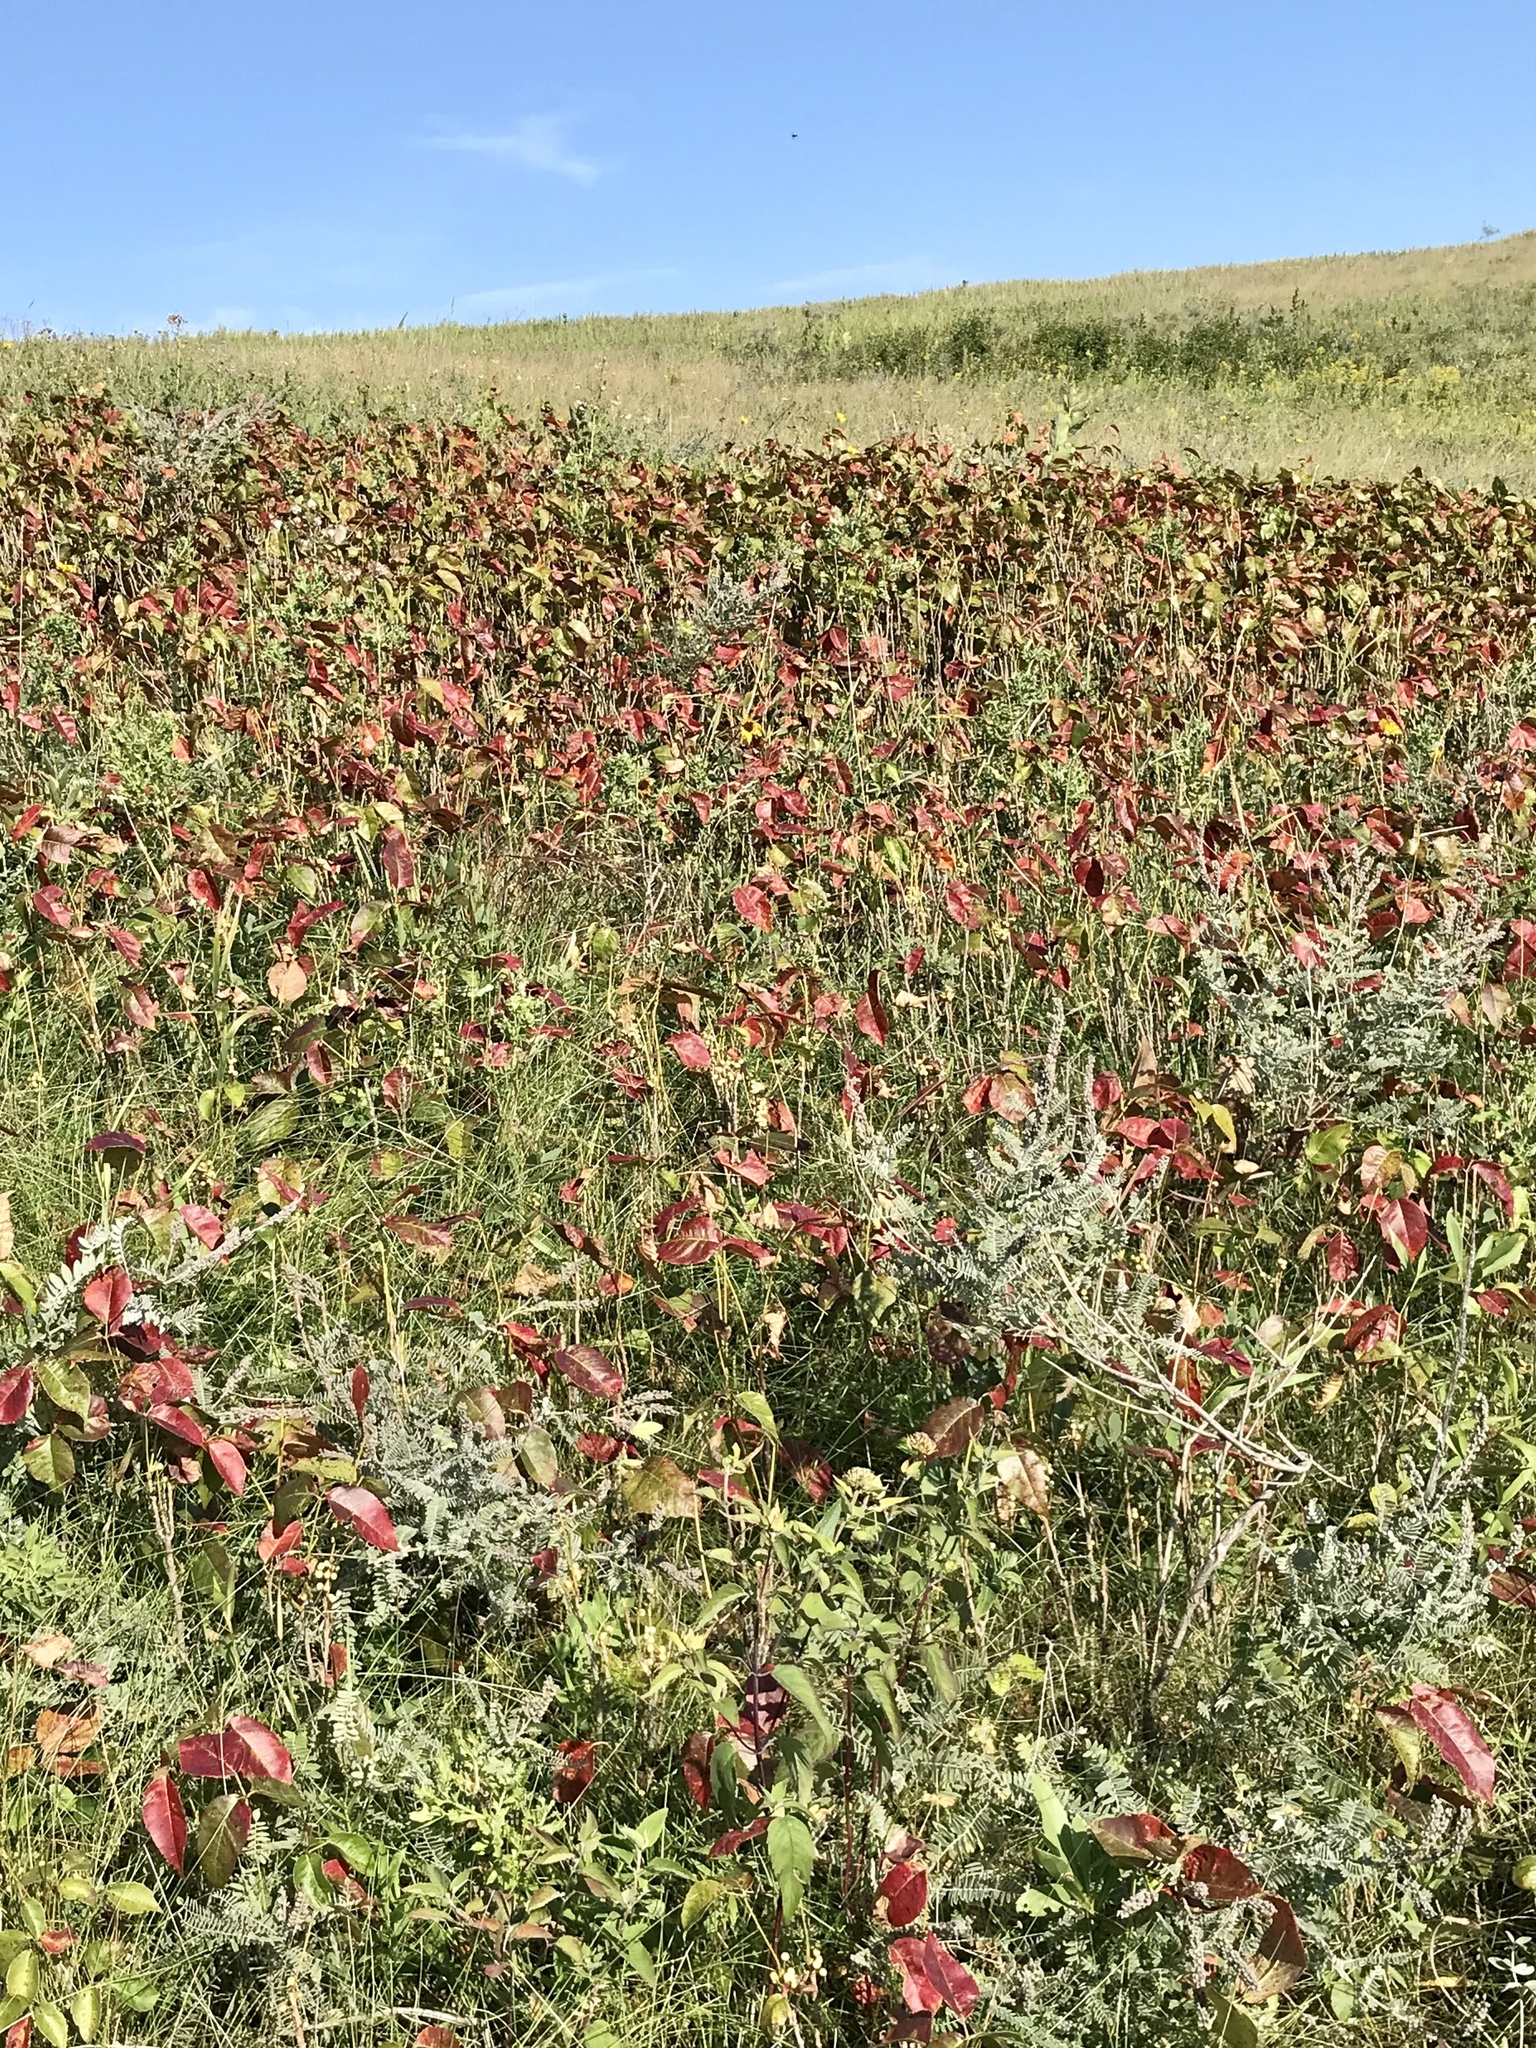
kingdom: Plantae
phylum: Tracheophyta
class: Magnoliopsida
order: Sapindales
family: Anacardiaceae
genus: Toxicodendron
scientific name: Toxicodendron rydbergii
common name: Rydberg's poison-ivy
